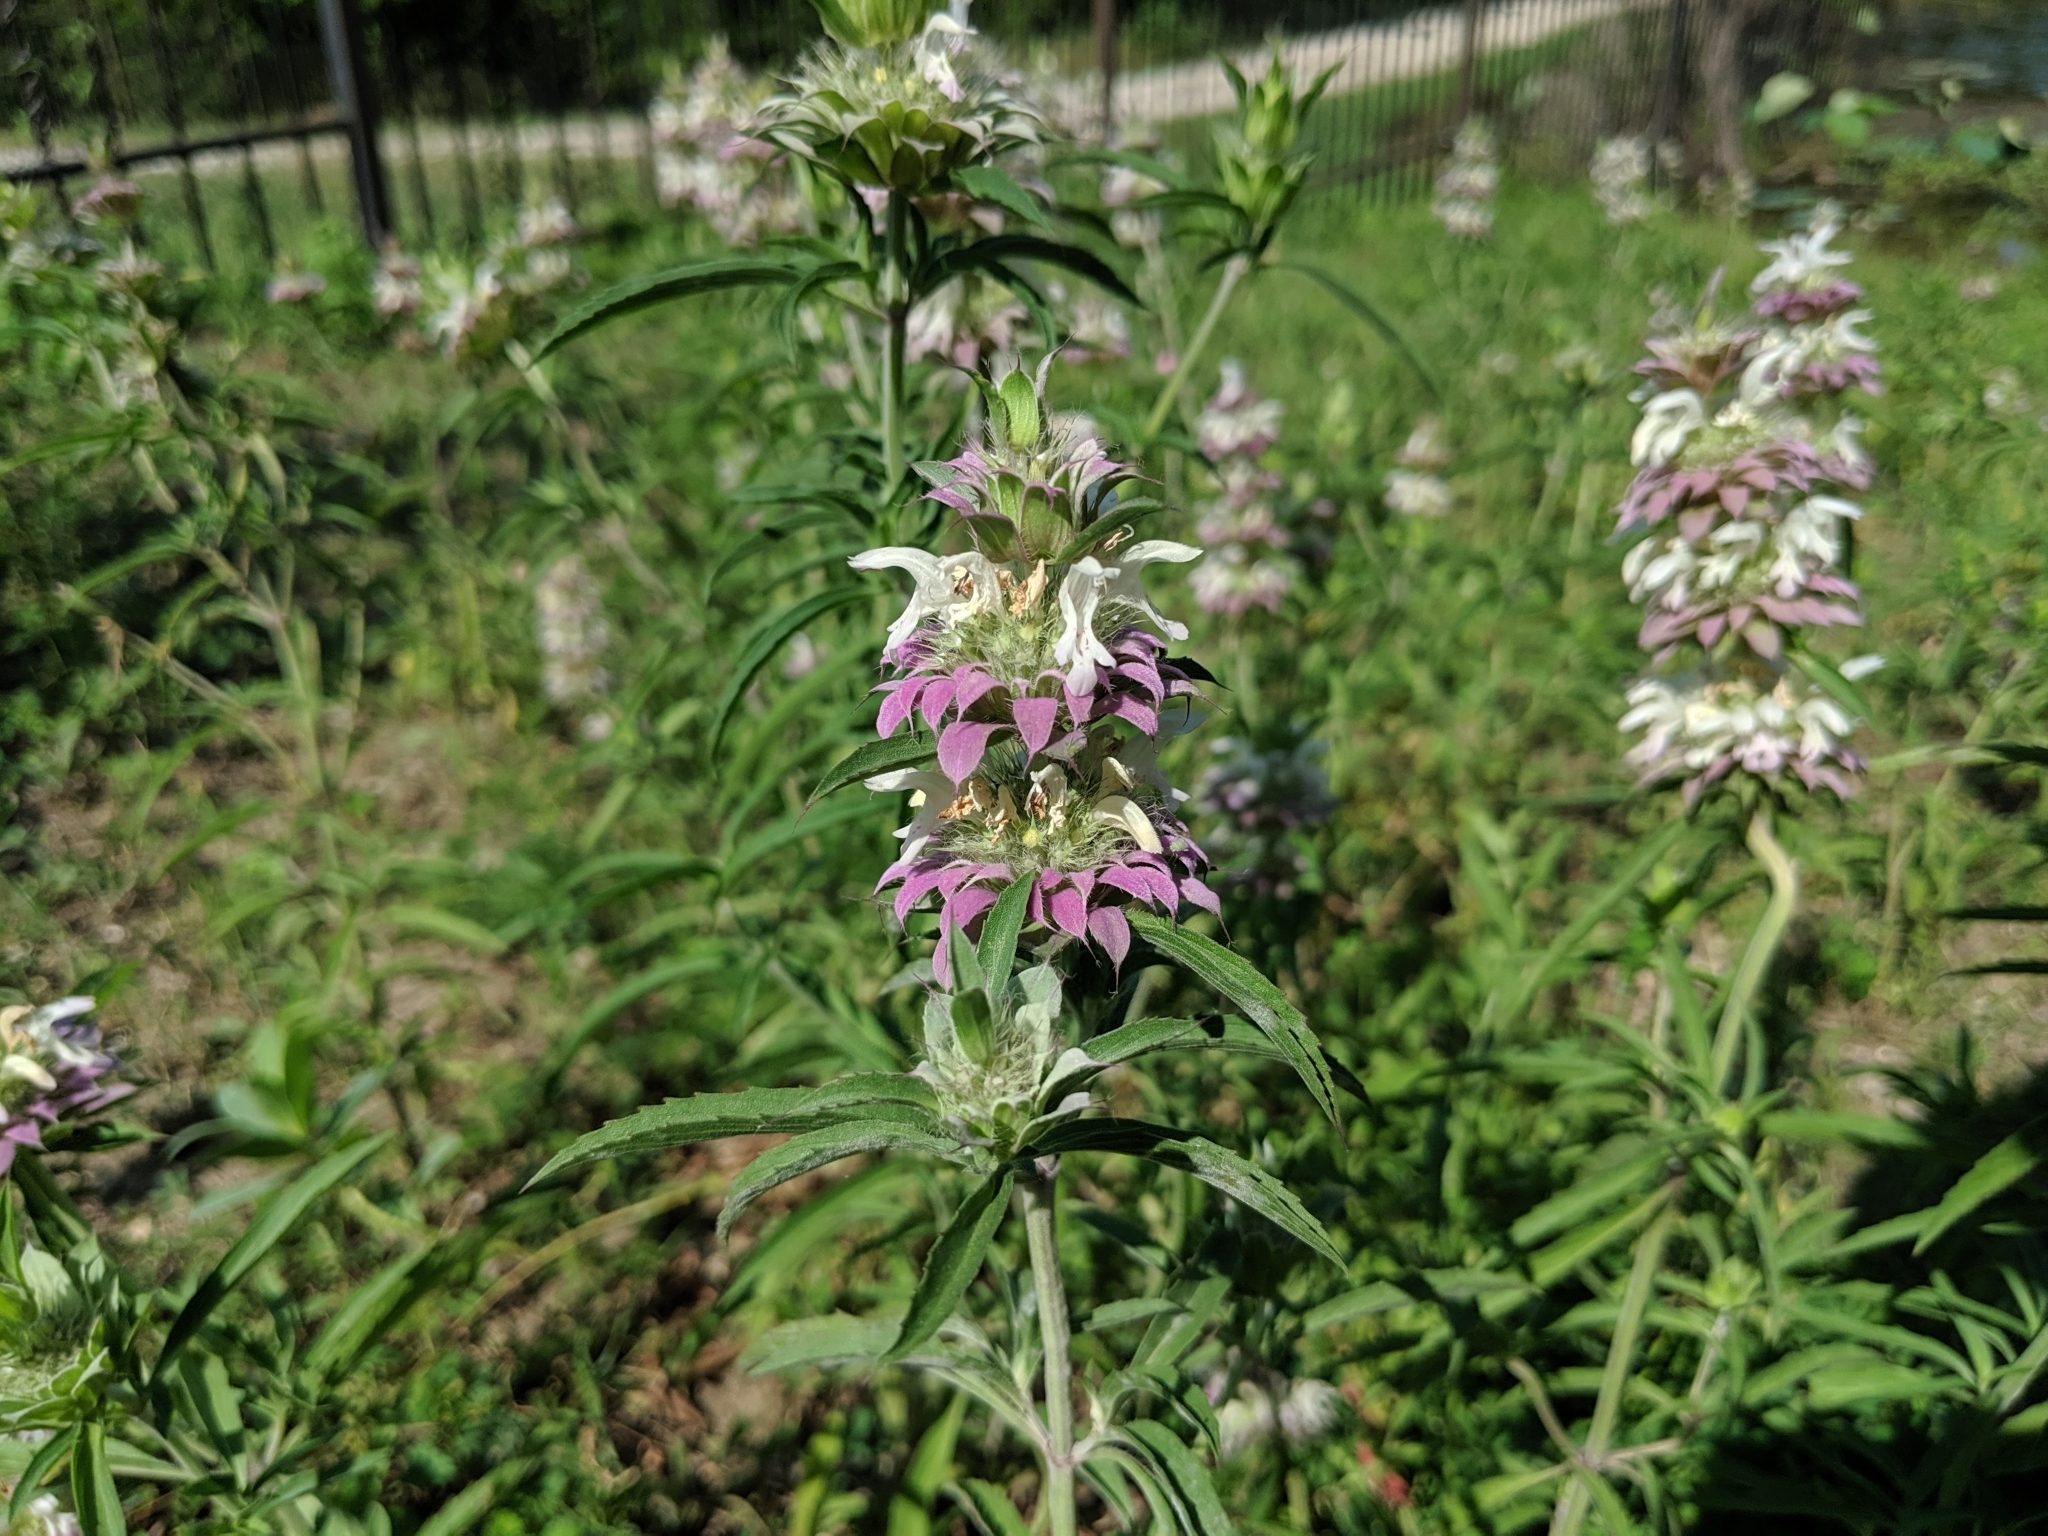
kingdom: Plantae
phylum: Tracheophyta
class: Magnoliopsida
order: Lamiales
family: Lamiaceae
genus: Monarda
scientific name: Monarda citriodora
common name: Lemon beebalm
